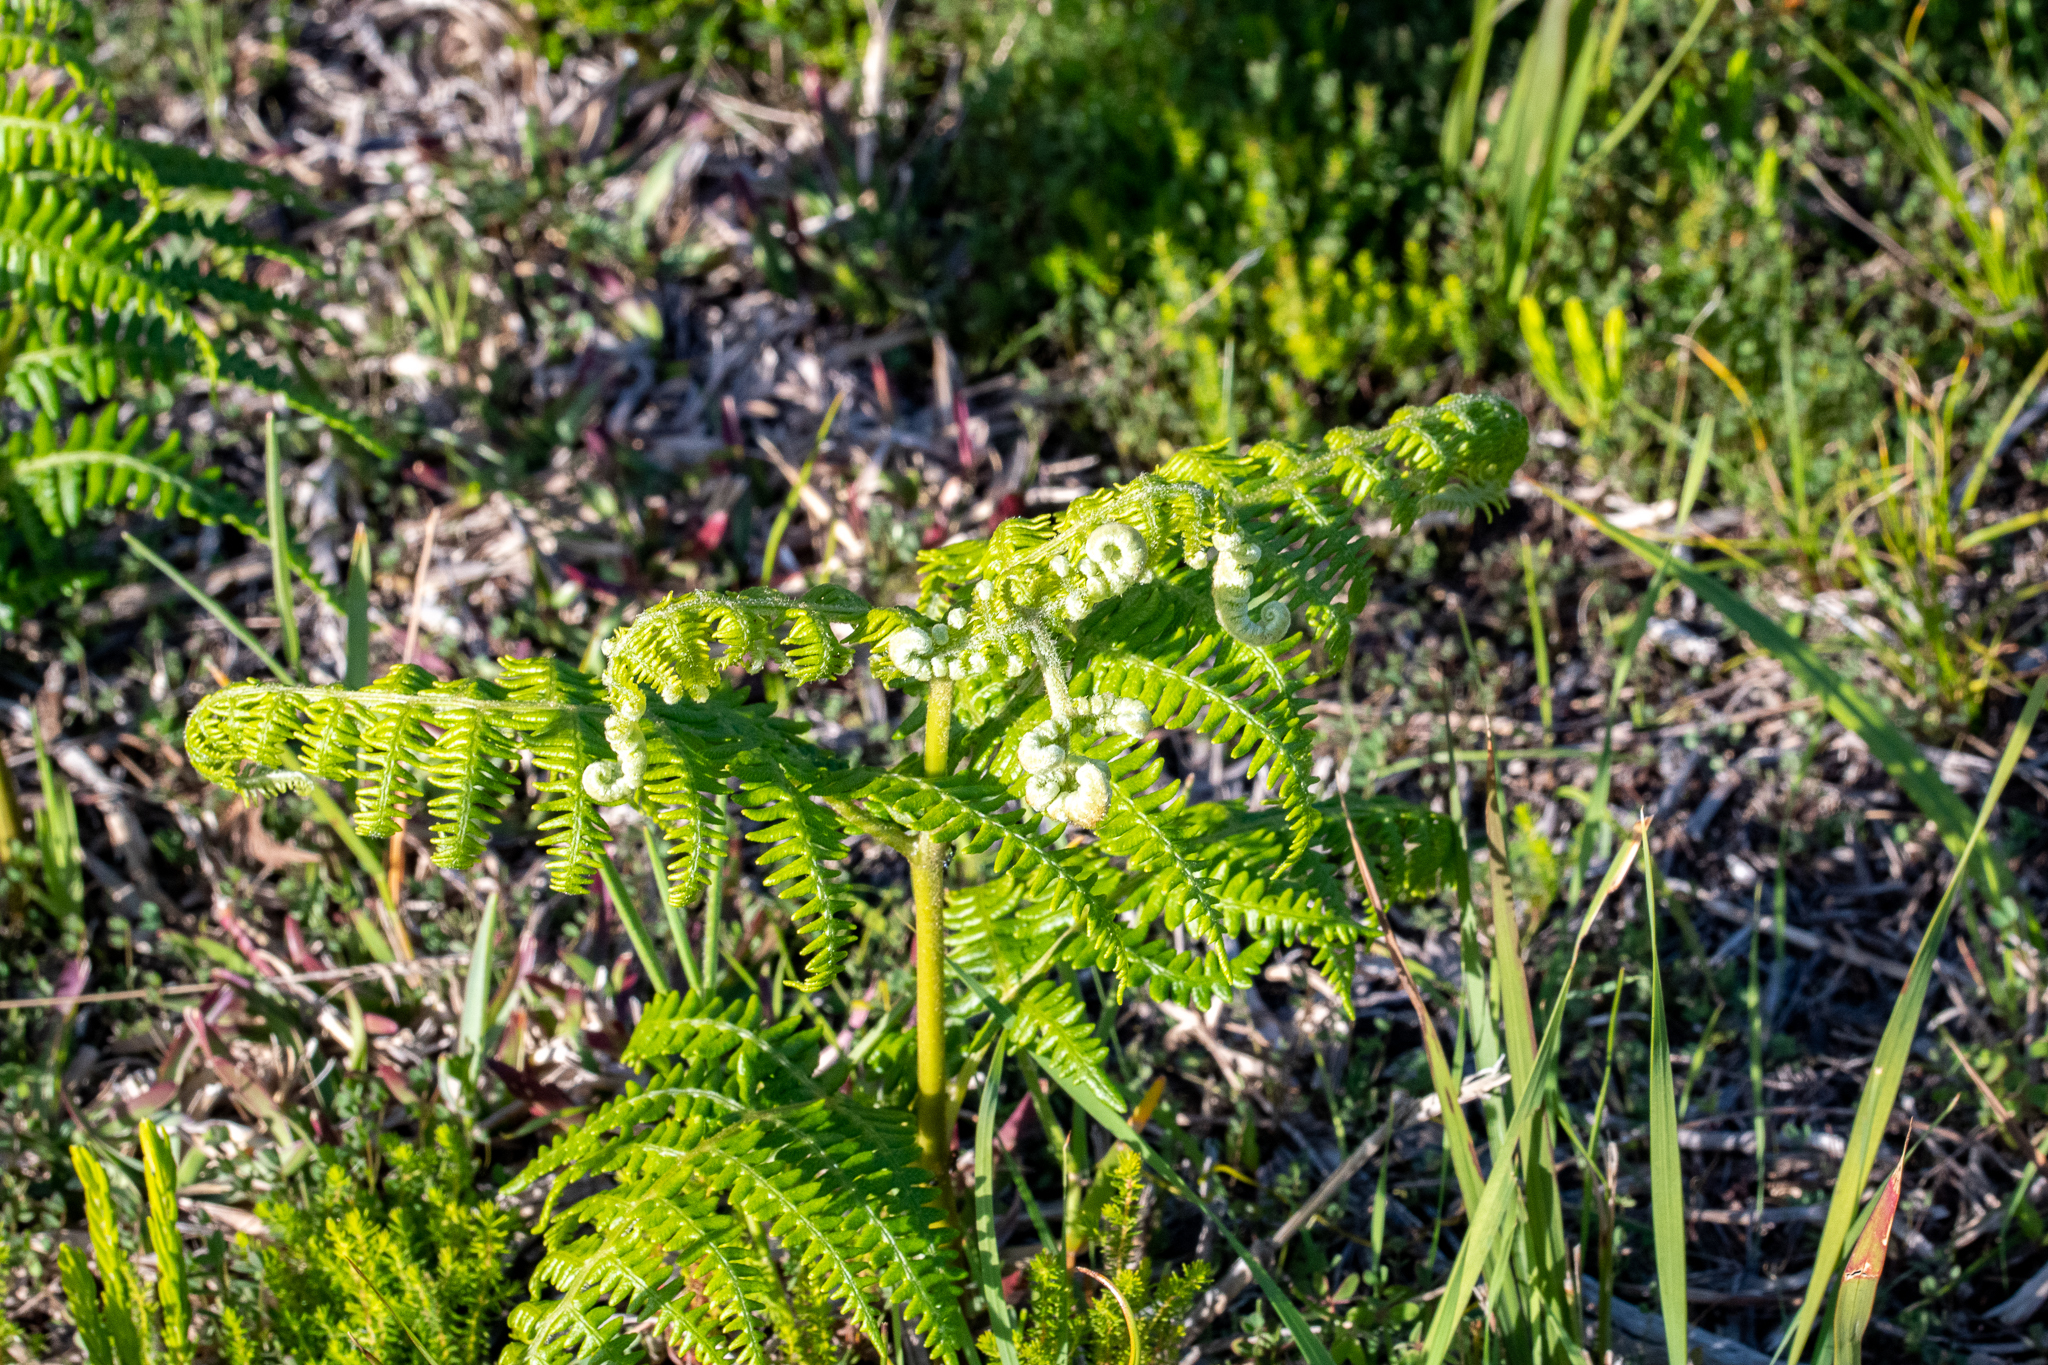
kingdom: Plantae
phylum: Tracheophyta
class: Polypodiopsida
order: Polypodiales
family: Dennstaedtiaceae
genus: Pteridium
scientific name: Pteridium aquilinum
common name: Bracken
